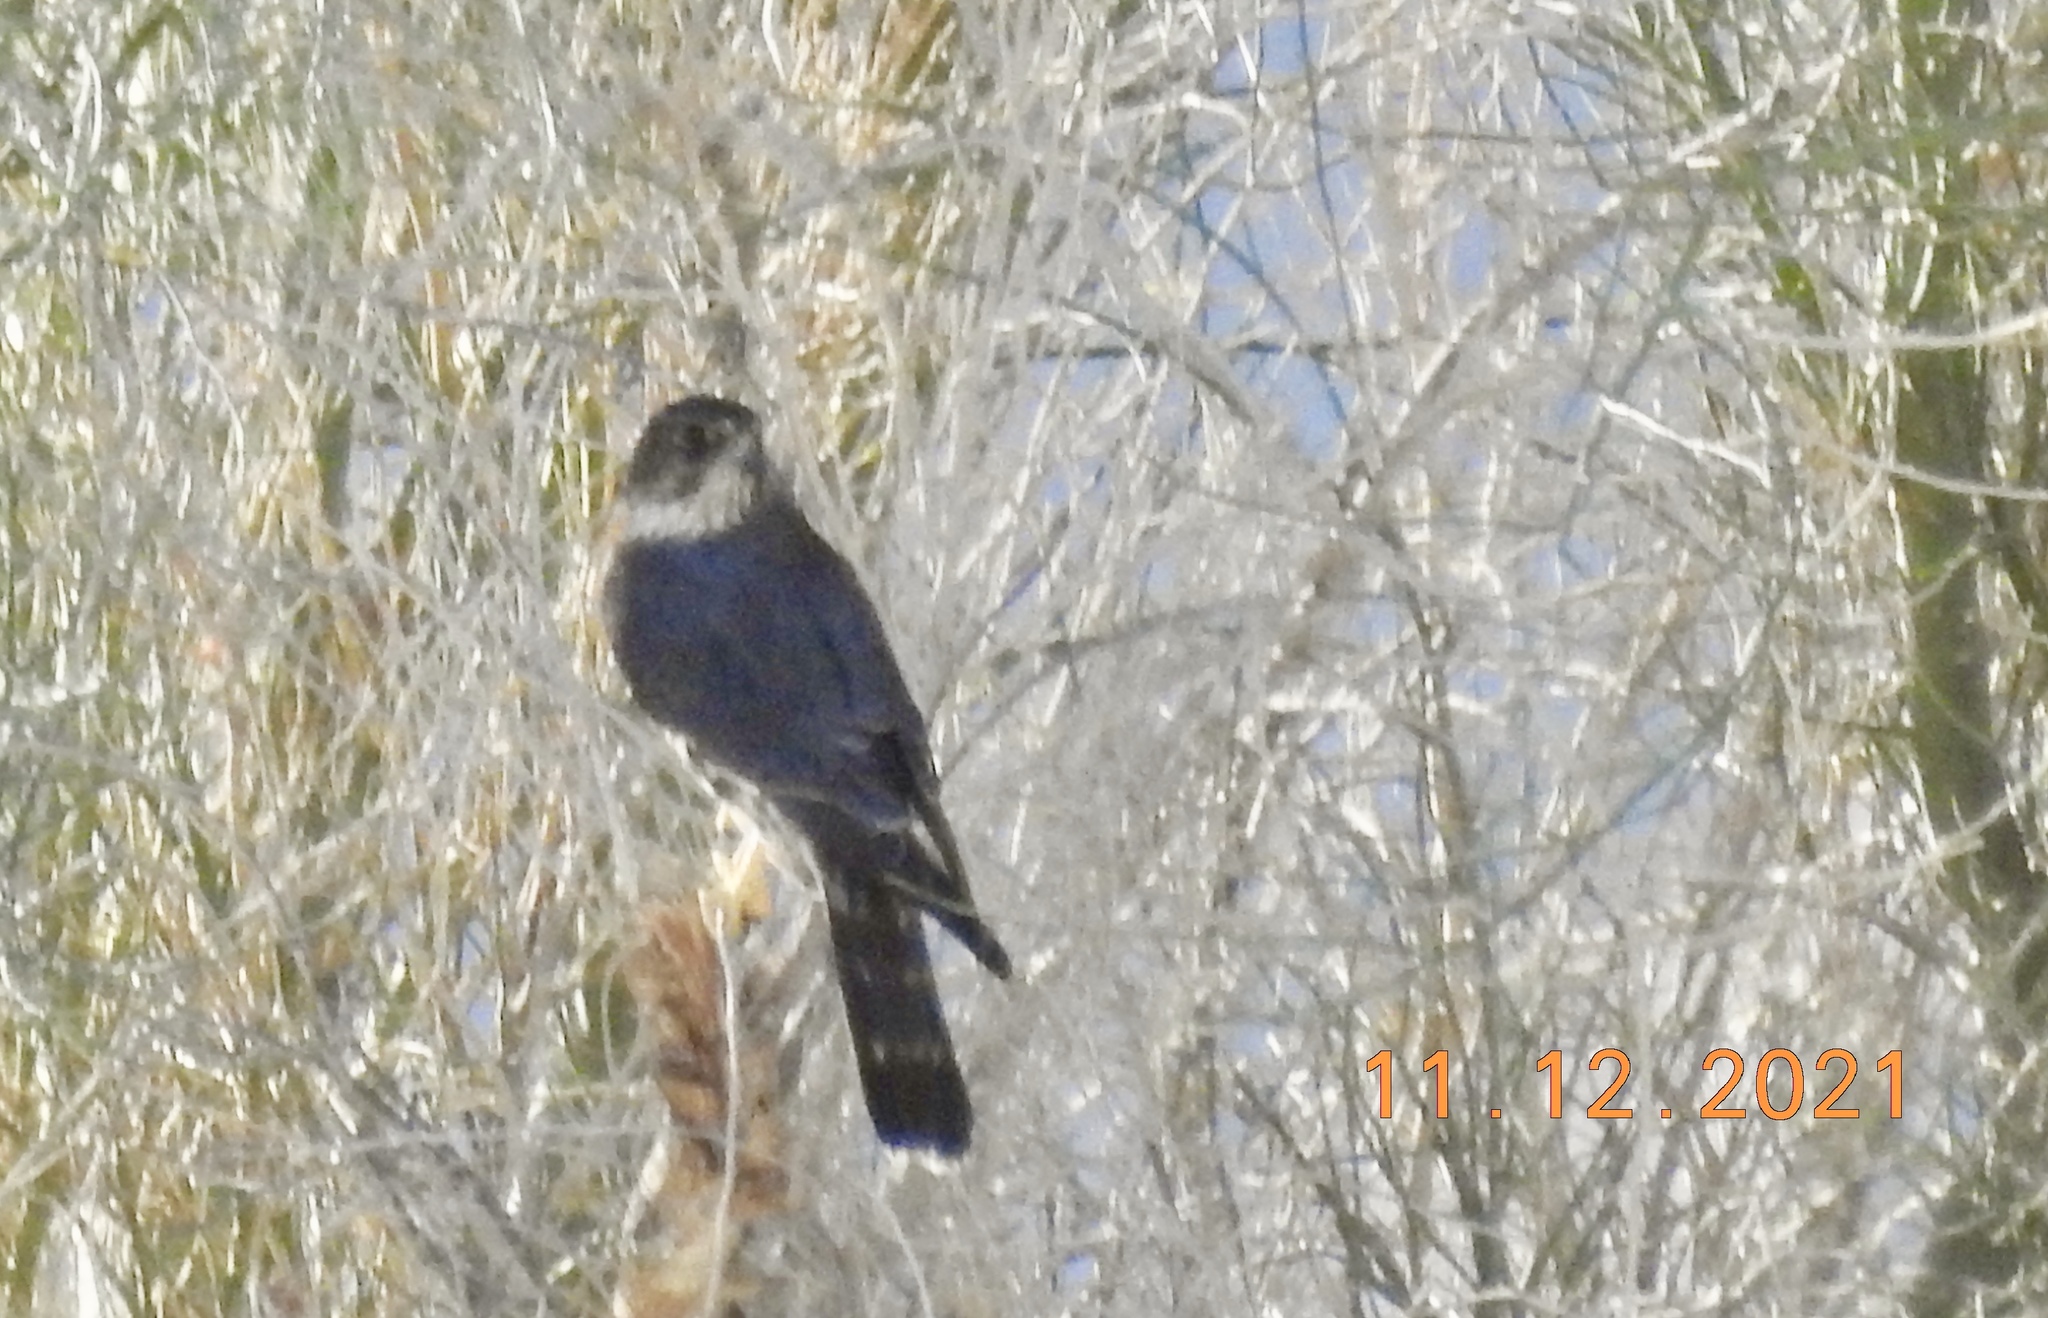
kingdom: Animalia
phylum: Chordata
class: Aves
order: Falconiformes
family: Falconidae
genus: Falco
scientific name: Falco columbarius
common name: Merlin
